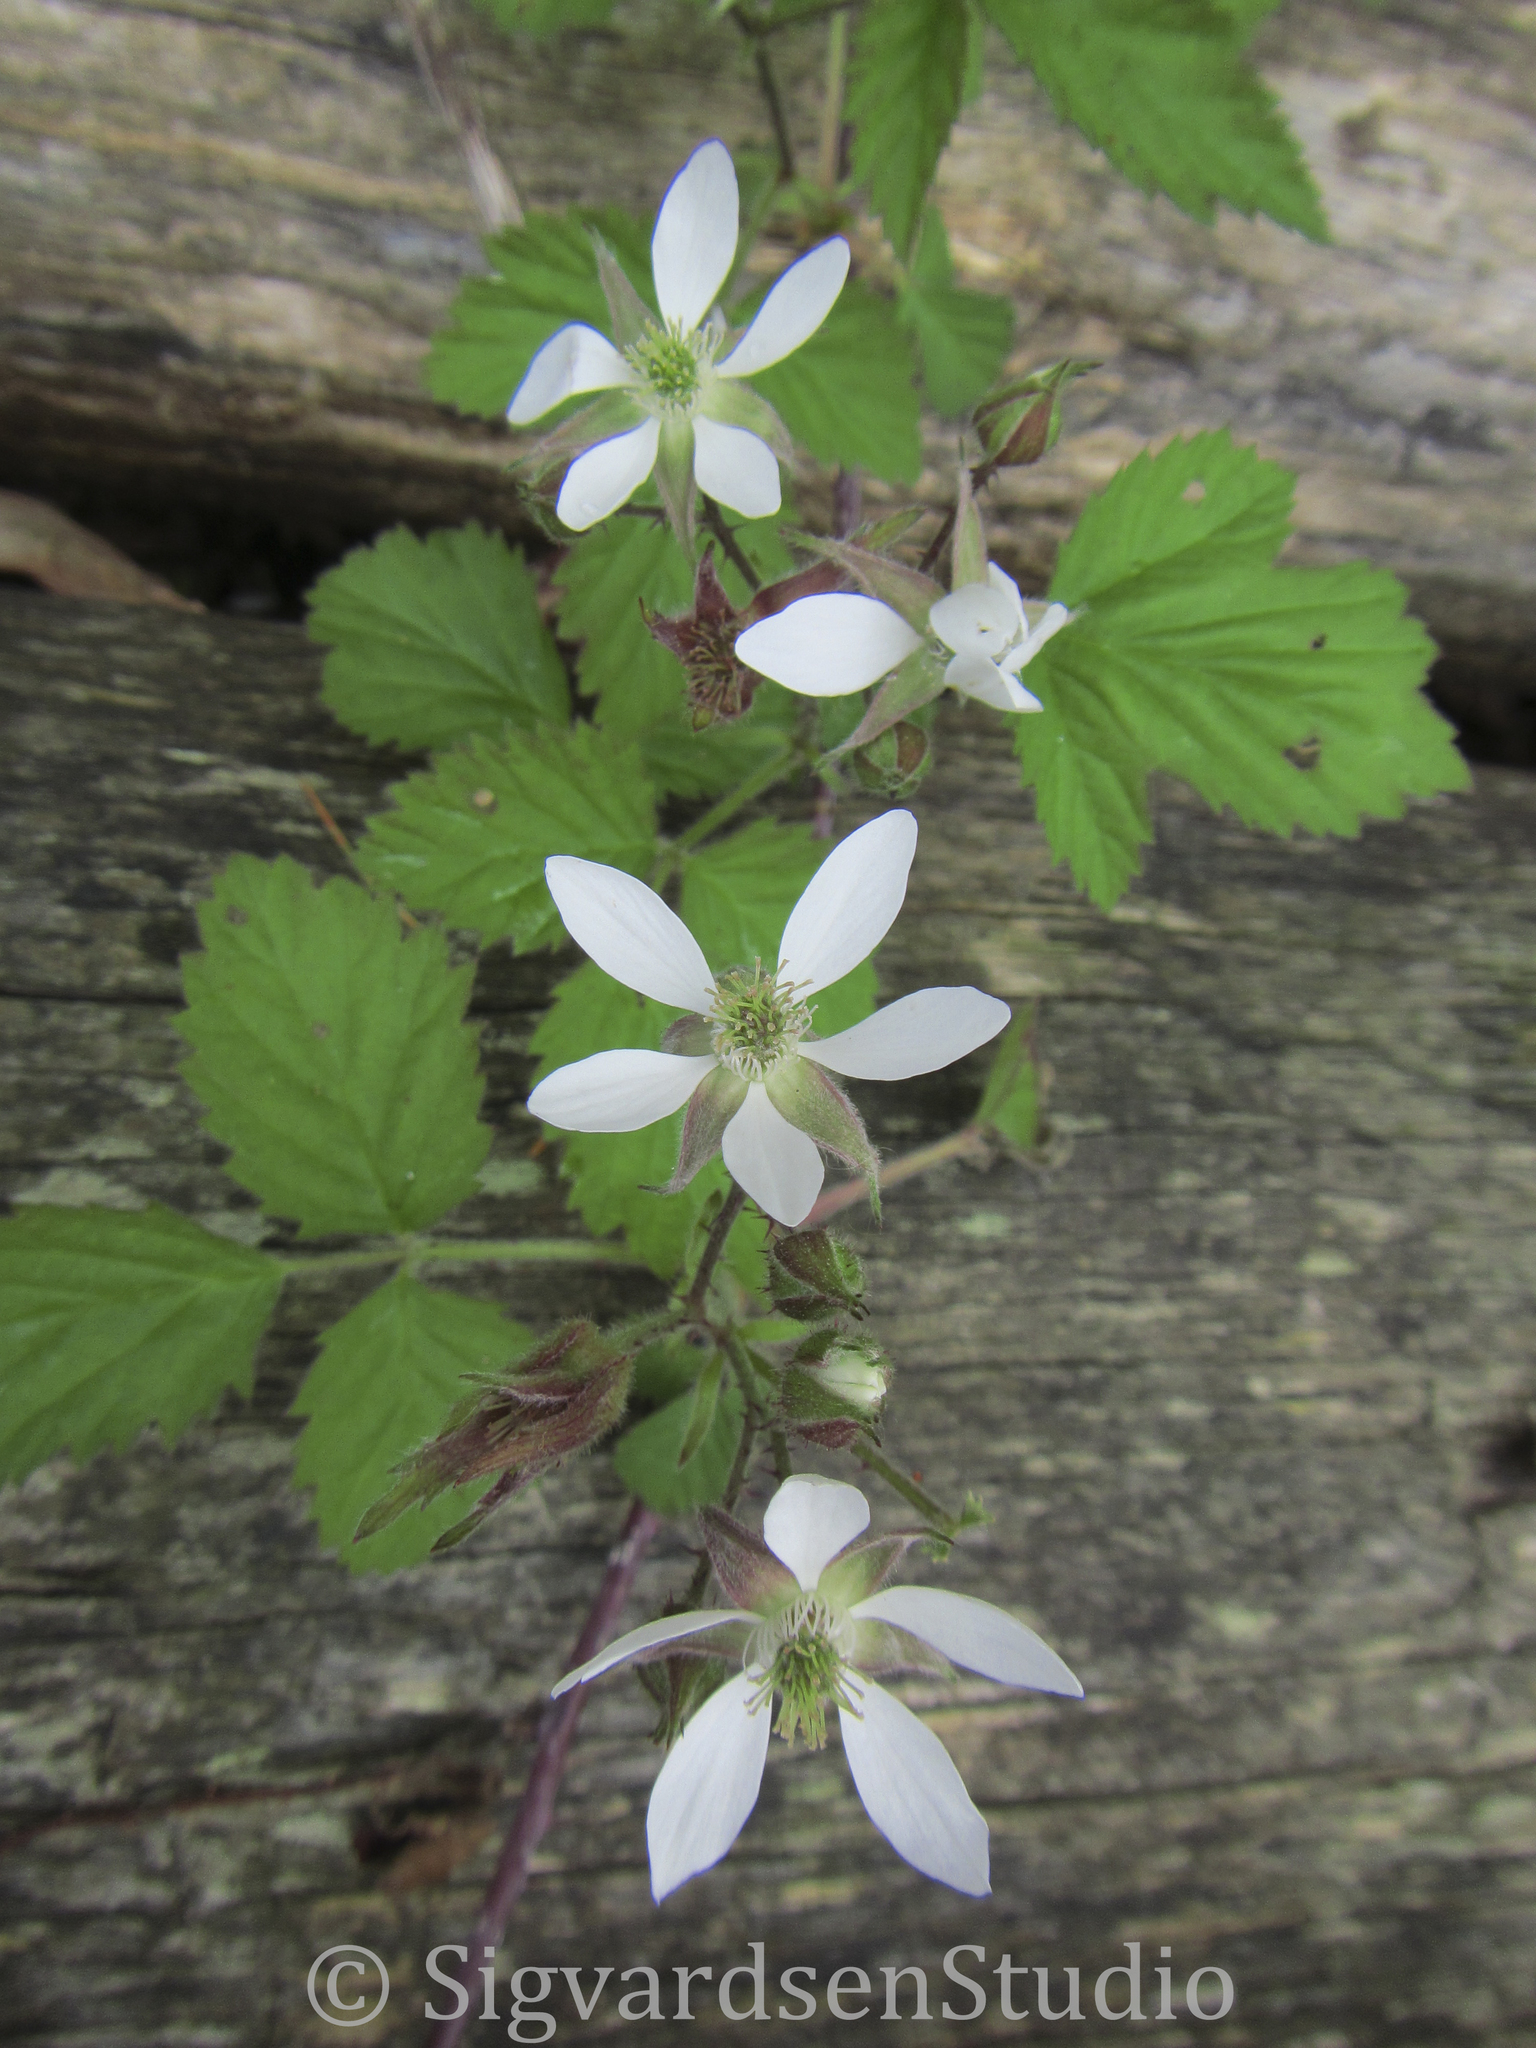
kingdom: Plantae
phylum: Tracheophyta
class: Magnoliopsida
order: Rosales
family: Rosaceae
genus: Rubus
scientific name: Rubus ursinus
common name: Pacific blackberry
